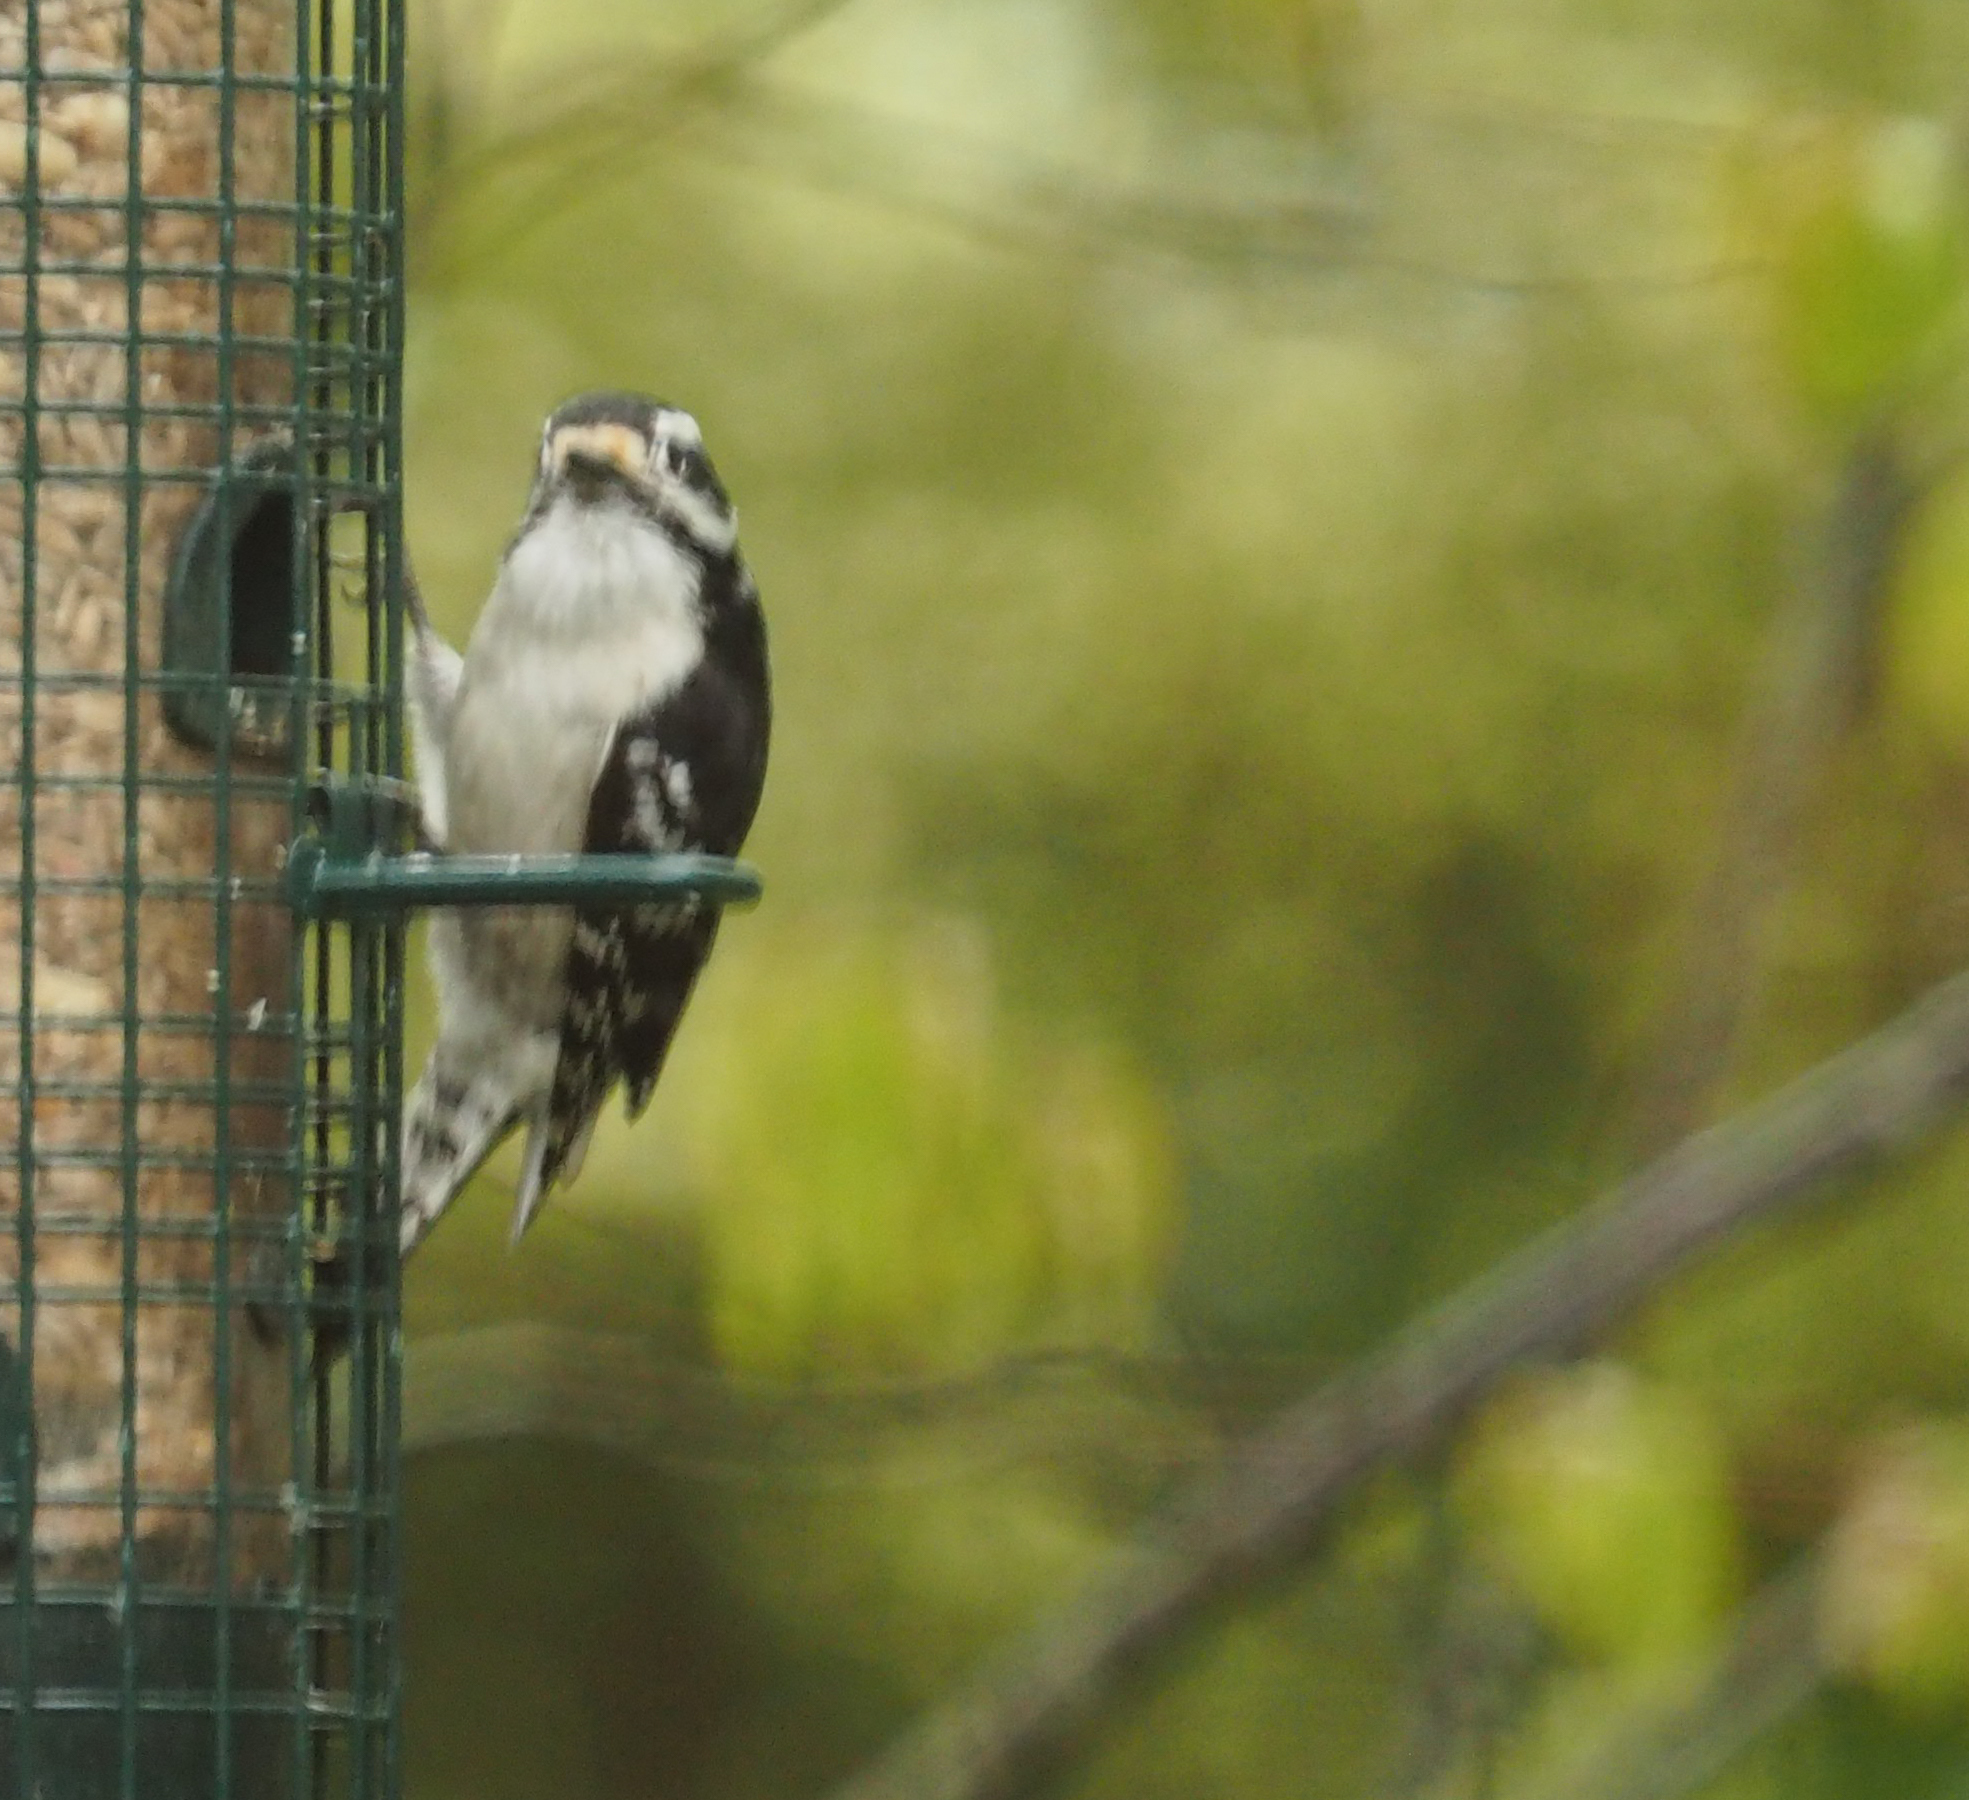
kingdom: Animalia
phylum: Chordata
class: Aves
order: Piciformes
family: Picidae
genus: Dryobates
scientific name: Dryobates pubescens
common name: Downy woodpecker
